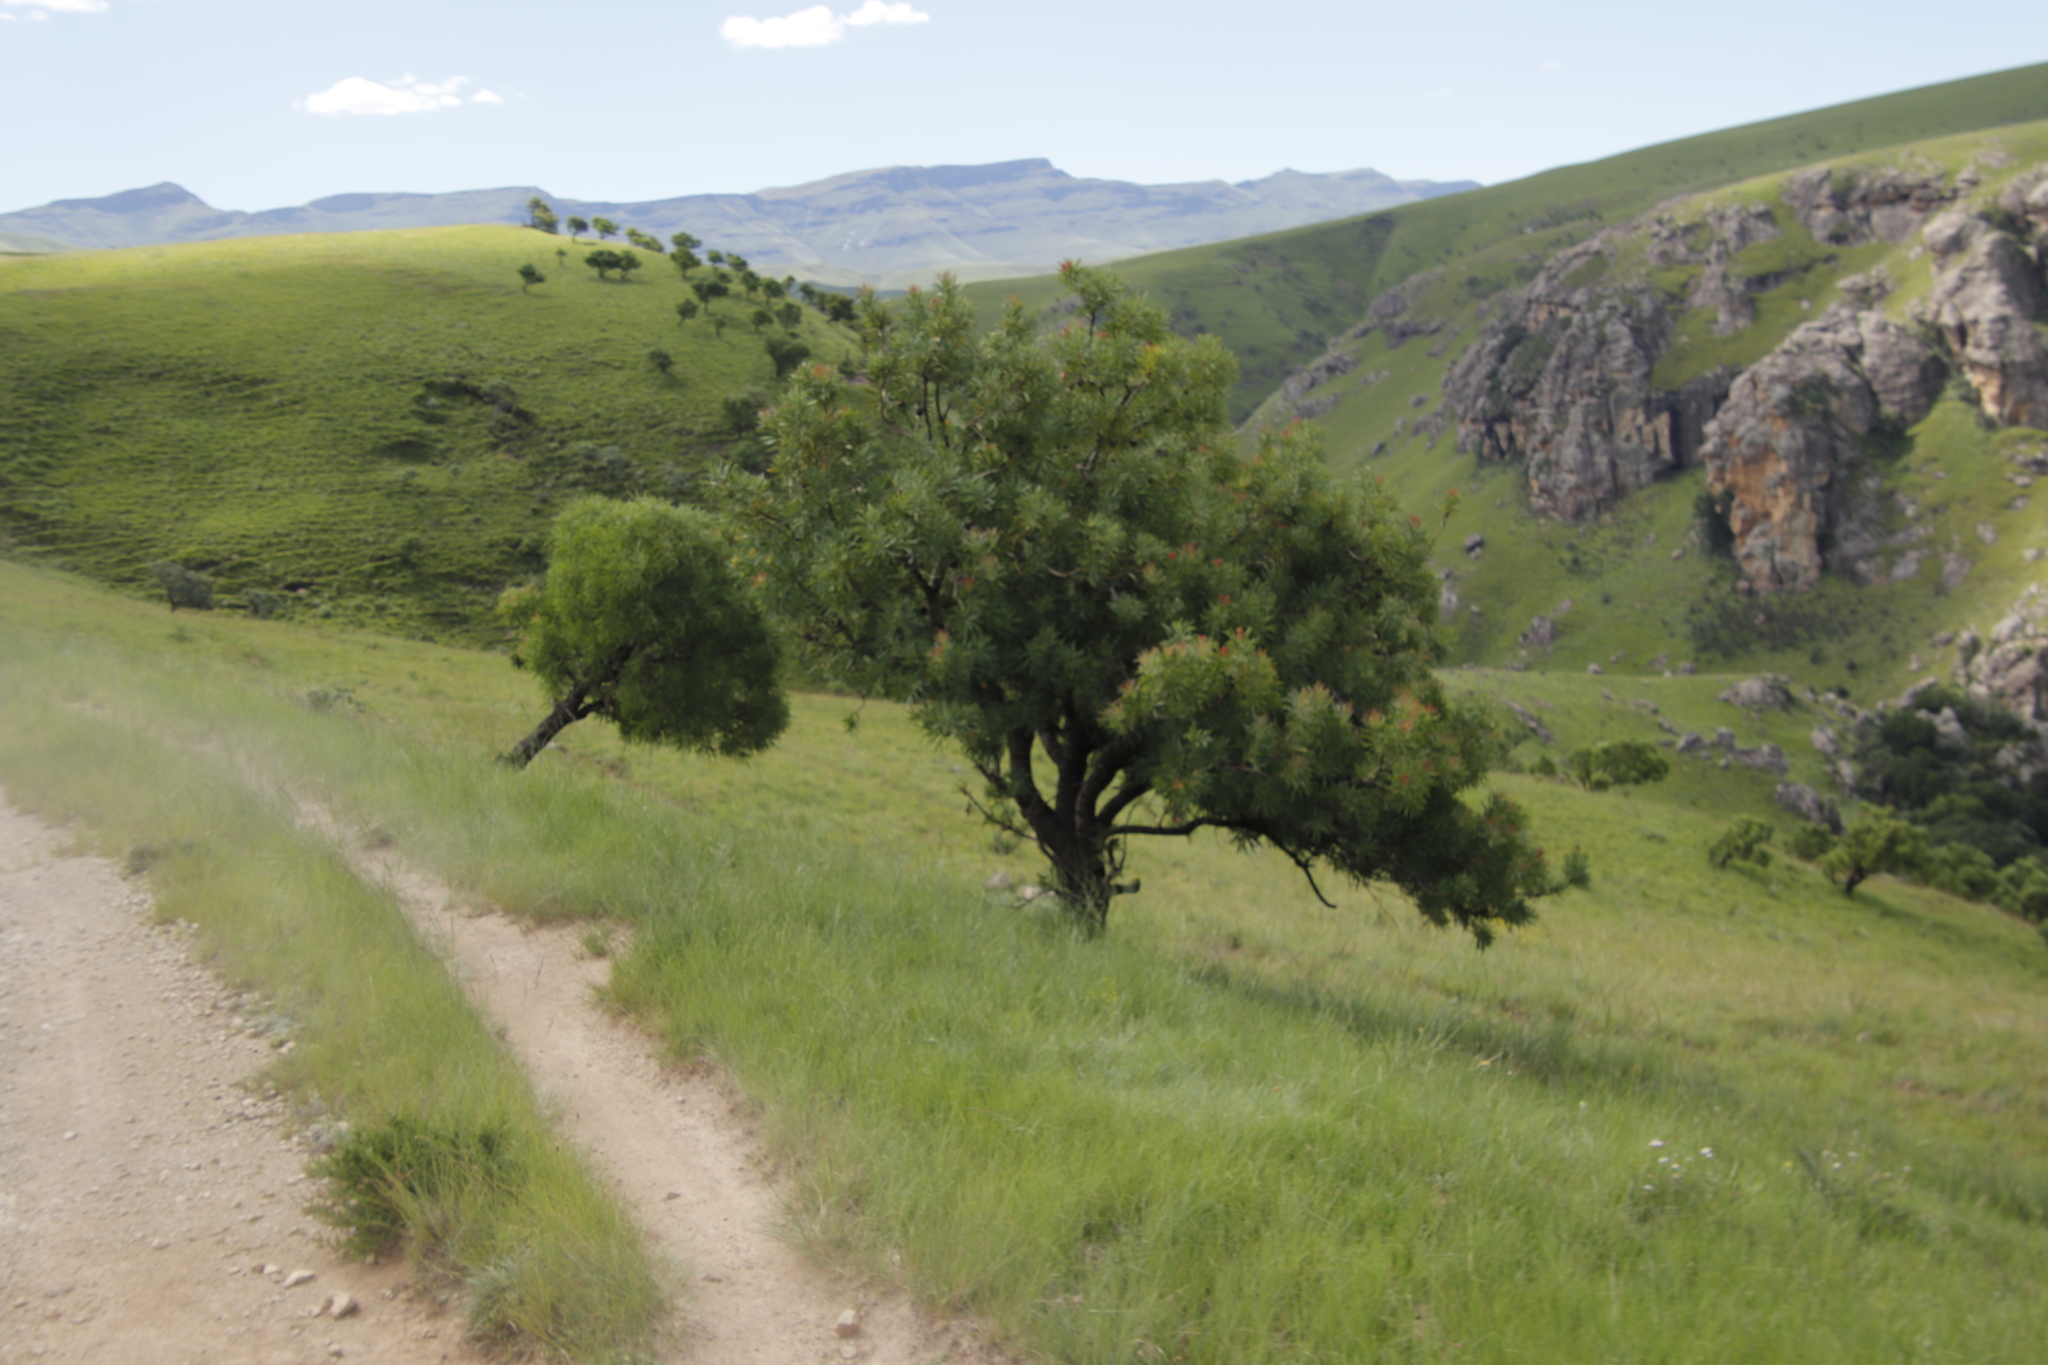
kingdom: Plantae
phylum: Tracheophyta
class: Magnoliopsida
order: Proteales
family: Proteaceae
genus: Protea
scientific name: Protea caffra
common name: Common sugarbush
